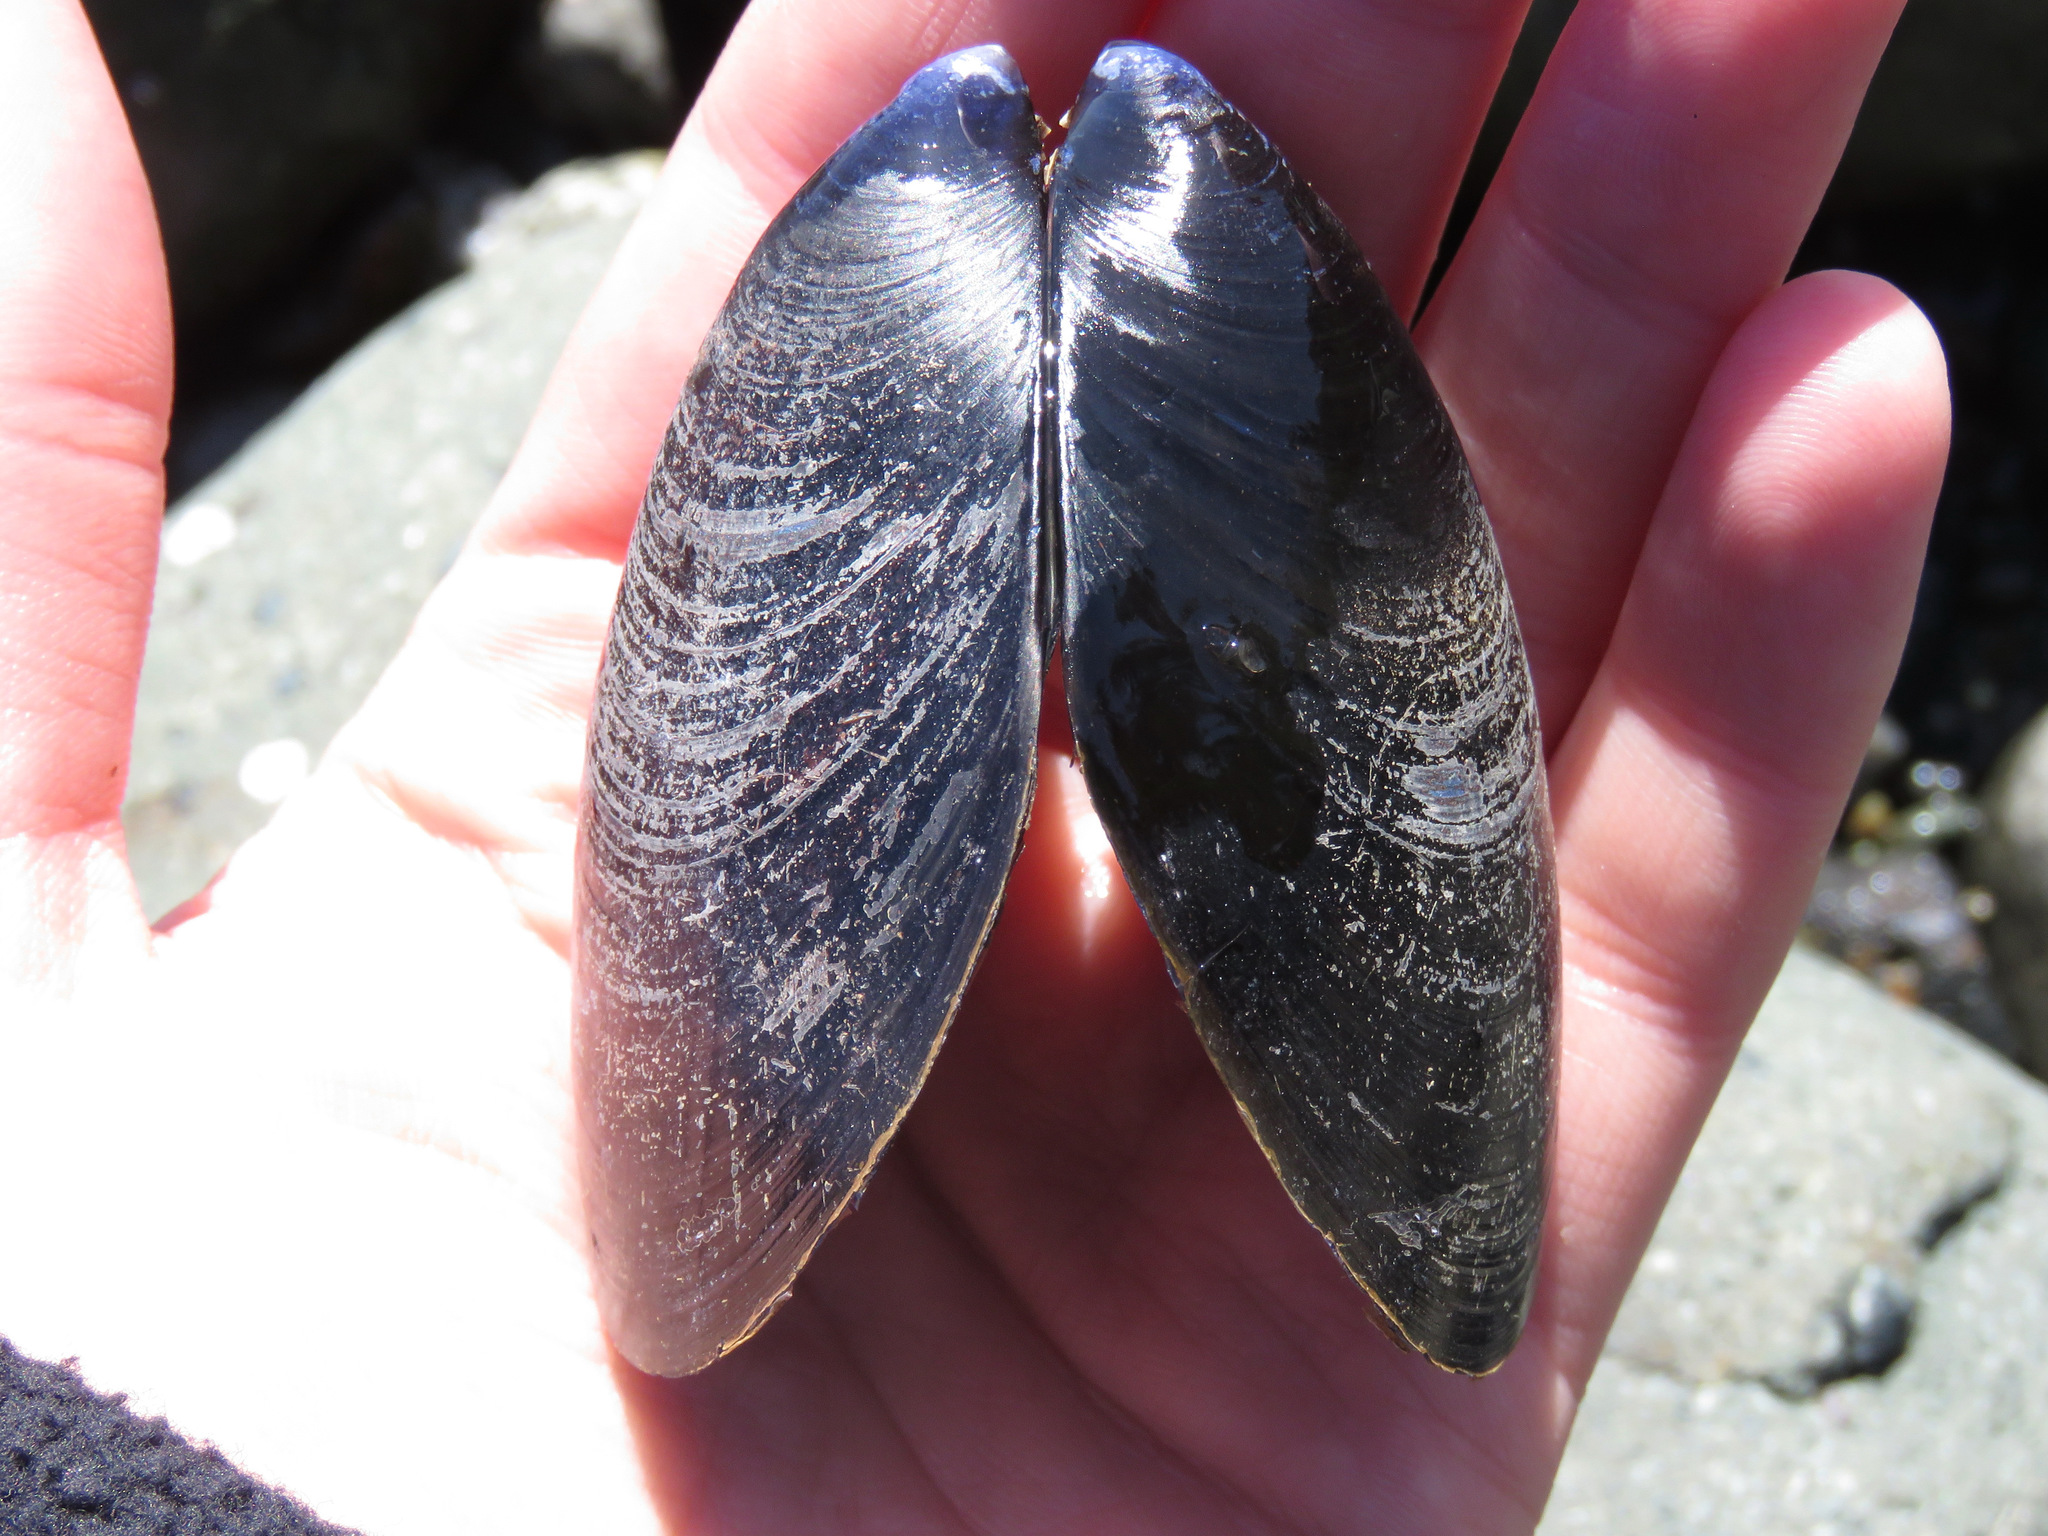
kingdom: Animalia
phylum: Mollusca
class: Bivalvia
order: Mytilida
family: Mytilidae
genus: Mytilus
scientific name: Mytilus
